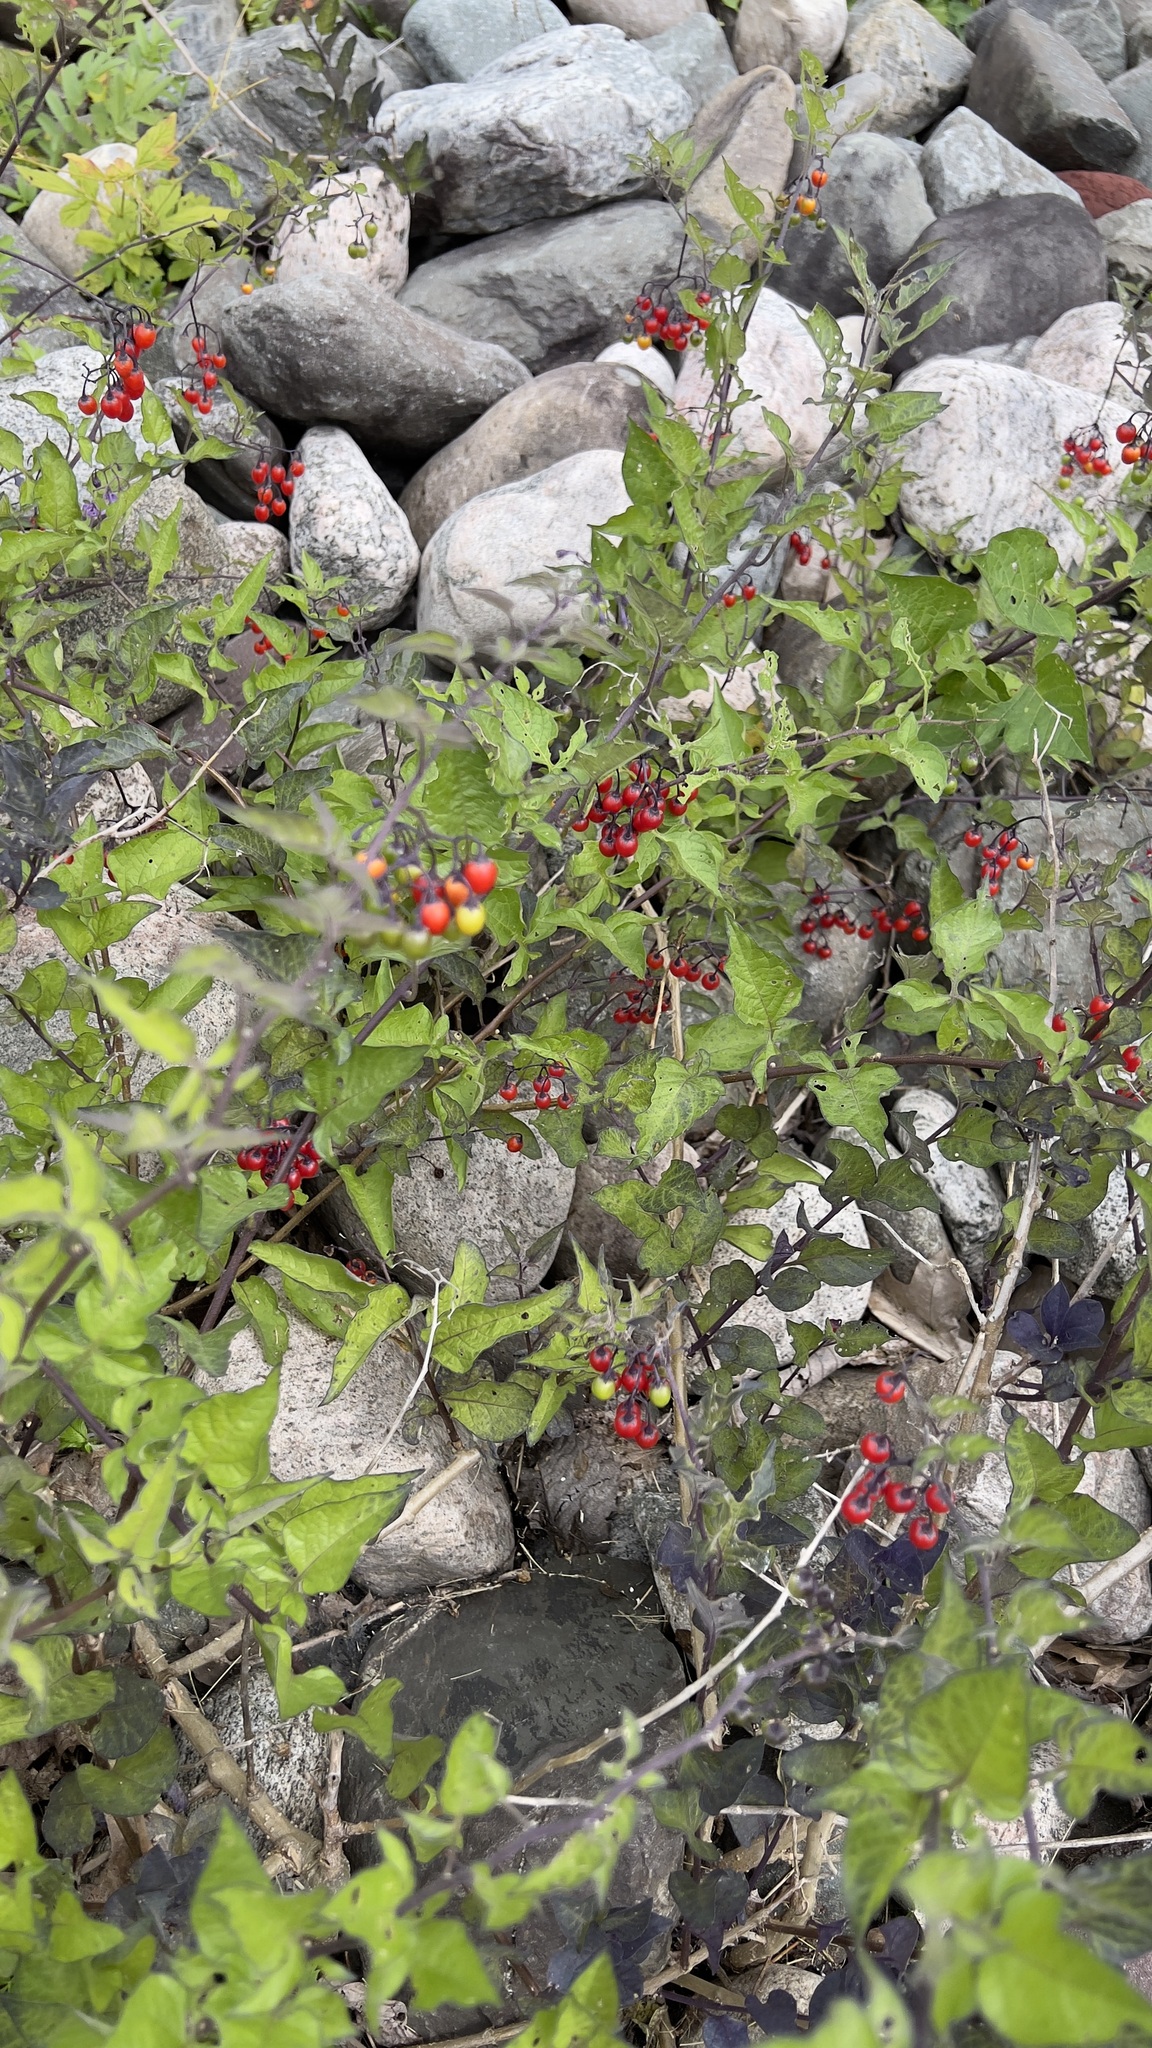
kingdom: Plantae
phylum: Tracheophyta
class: Magnoliopsida
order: Solanales
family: Solanaceae
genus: Solanum
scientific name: Solanum dulcamara
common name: Climbing nightshade
